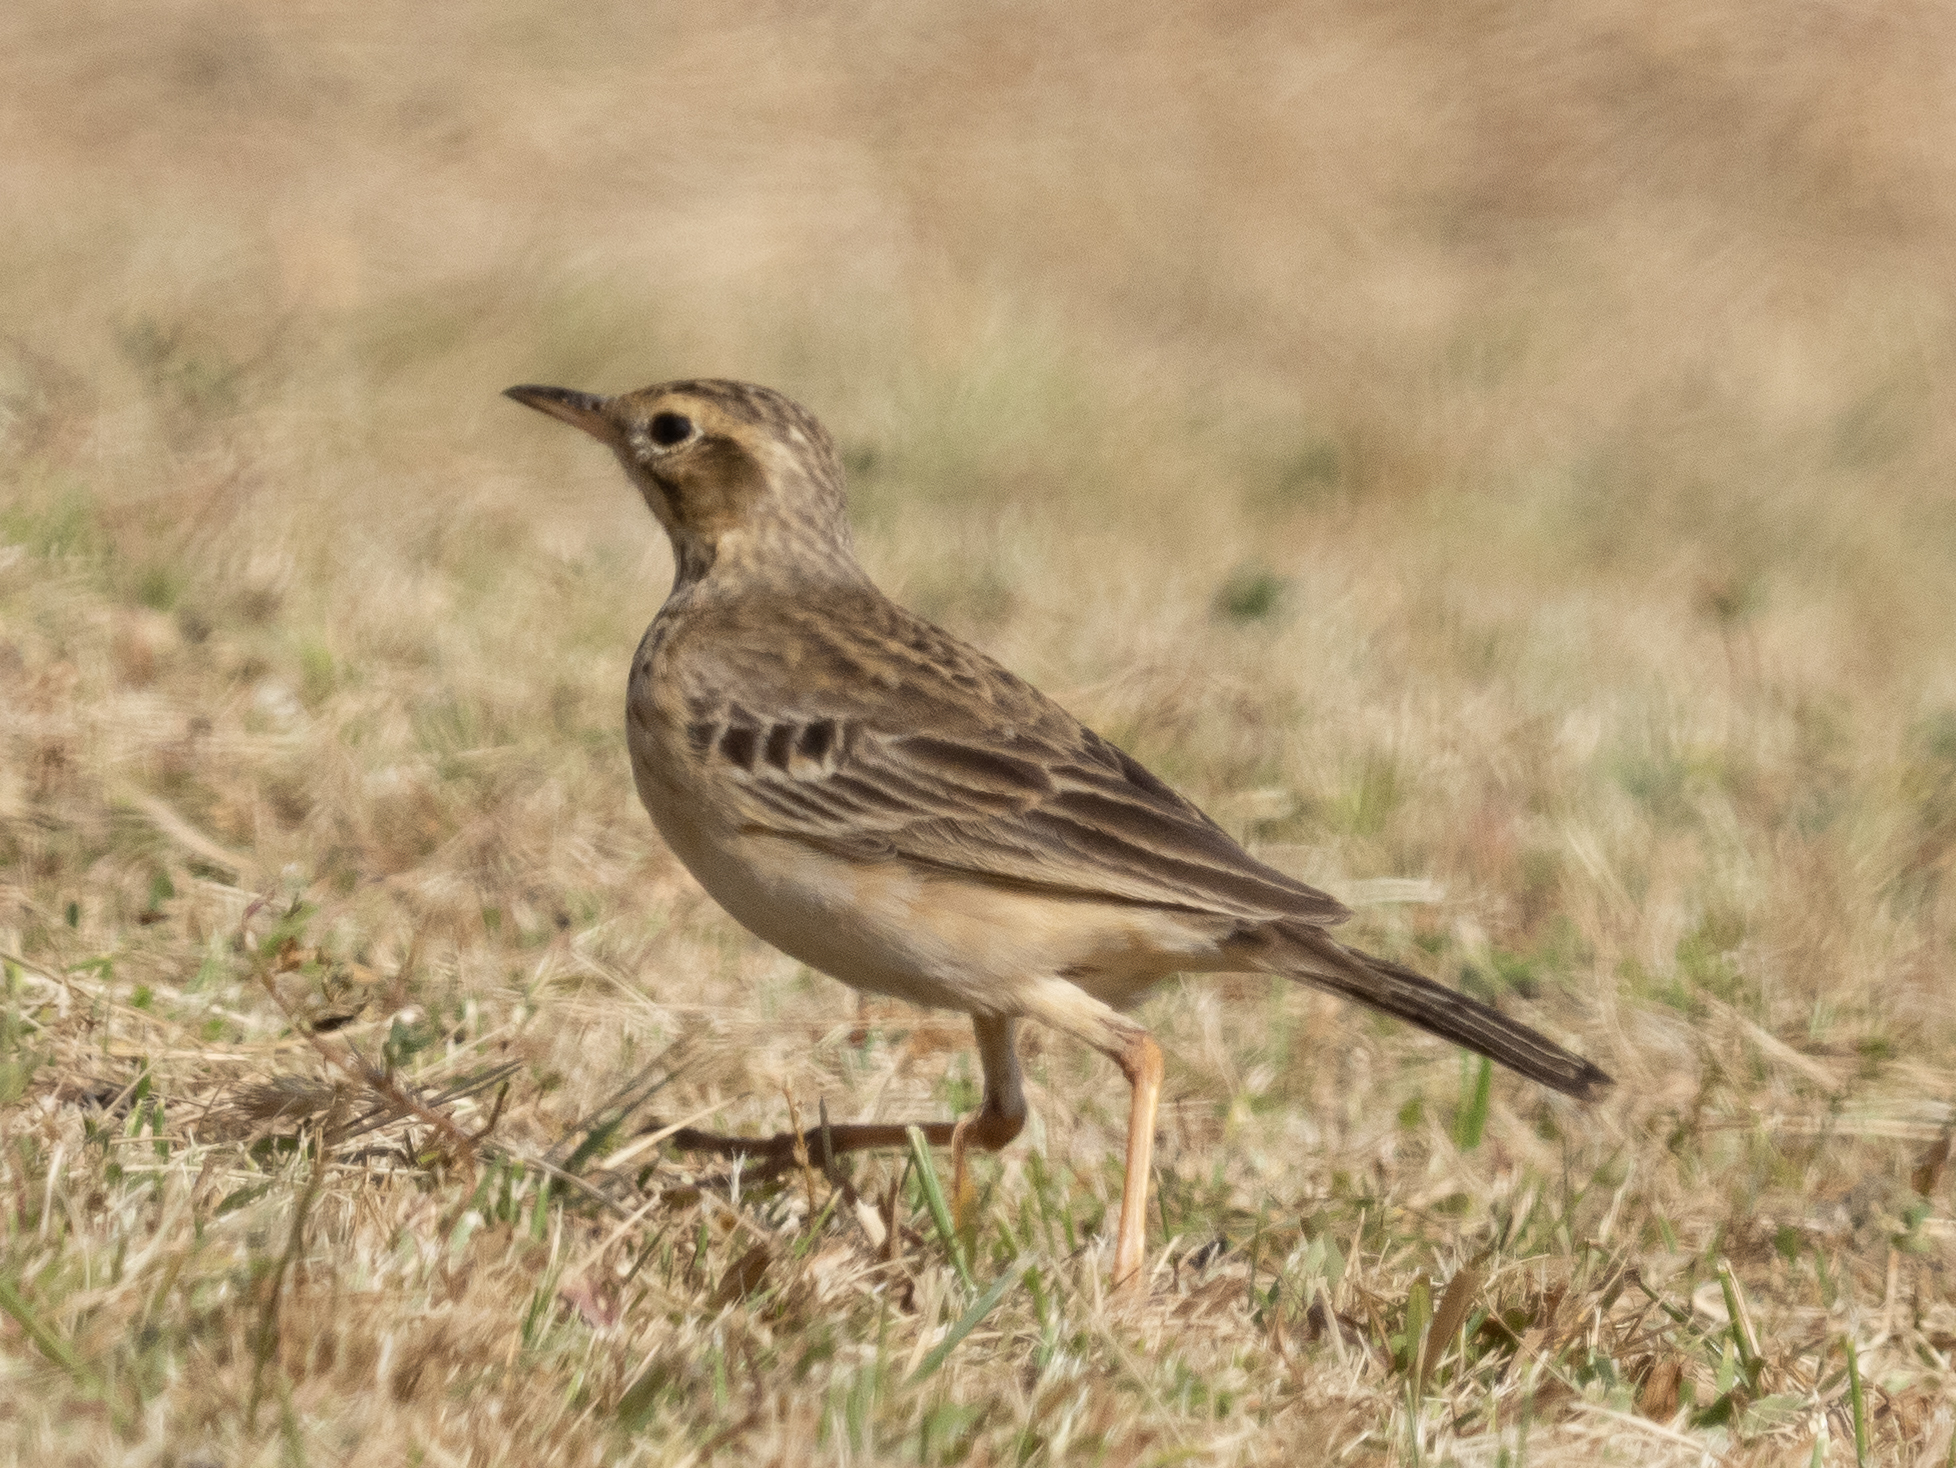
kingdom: Animalia
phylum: Chordata
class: Aves
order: Passeriformes
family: Motacillidae
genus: Anthus
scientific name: Anthus rufulus
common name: Paddyfield pipit
